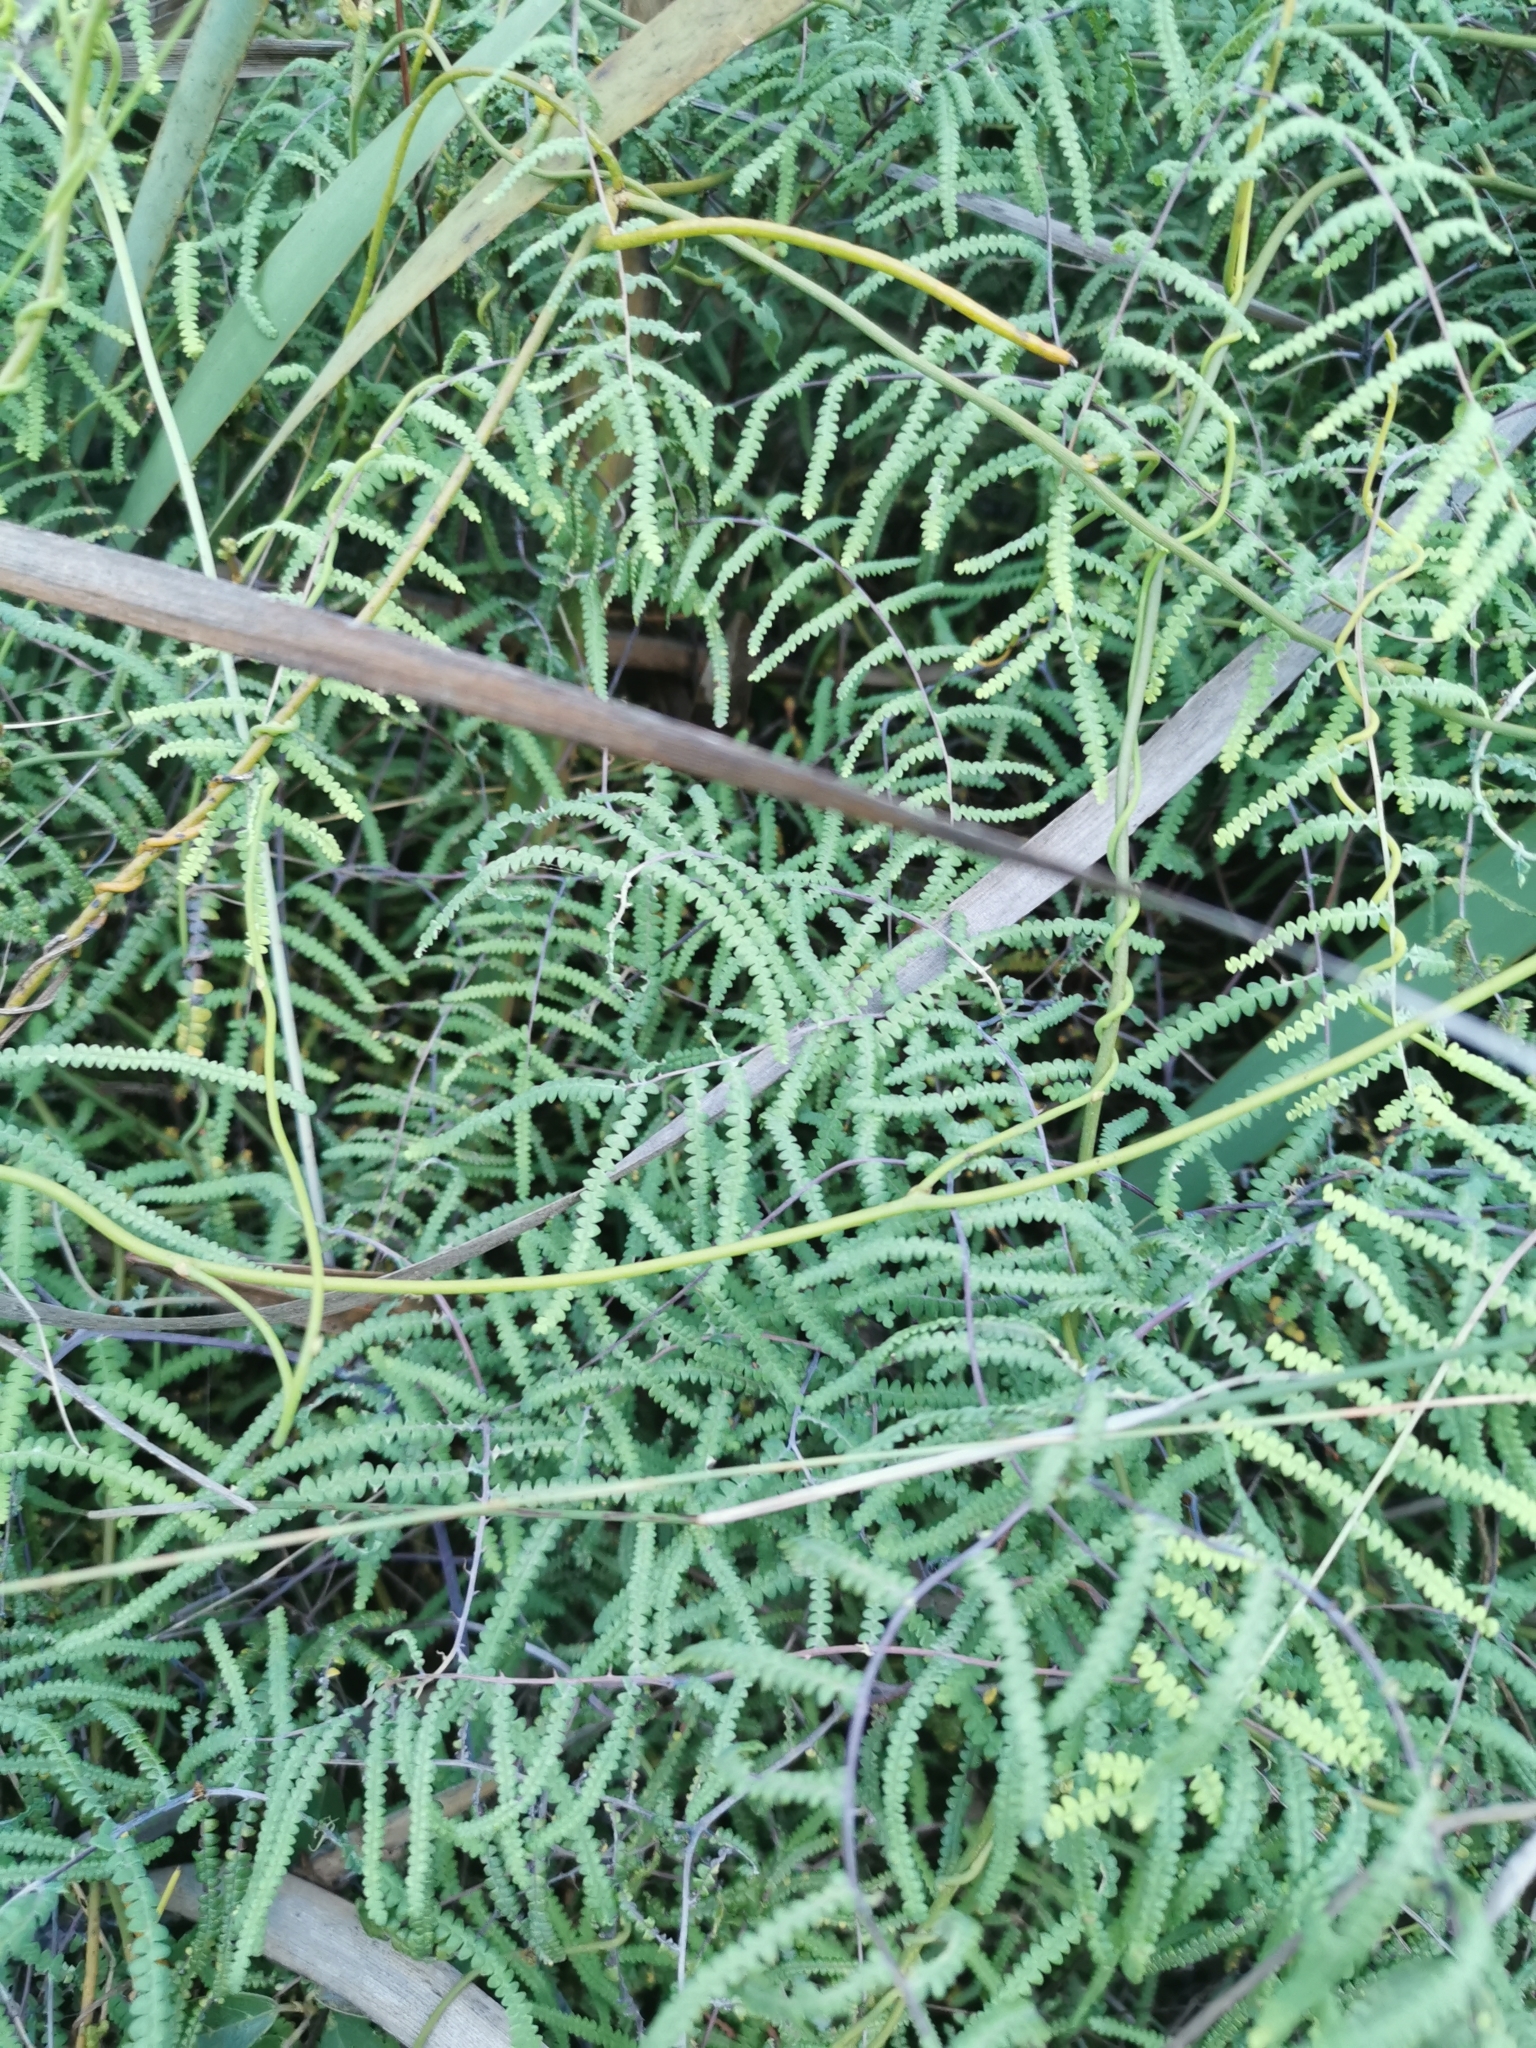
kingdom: Plantae
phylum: Tracheophyta
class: Polypodiopsida
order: Gleicheniales
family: Gleicheniaceae
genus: Gleichenia
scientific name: Gleichenia polypodioides
